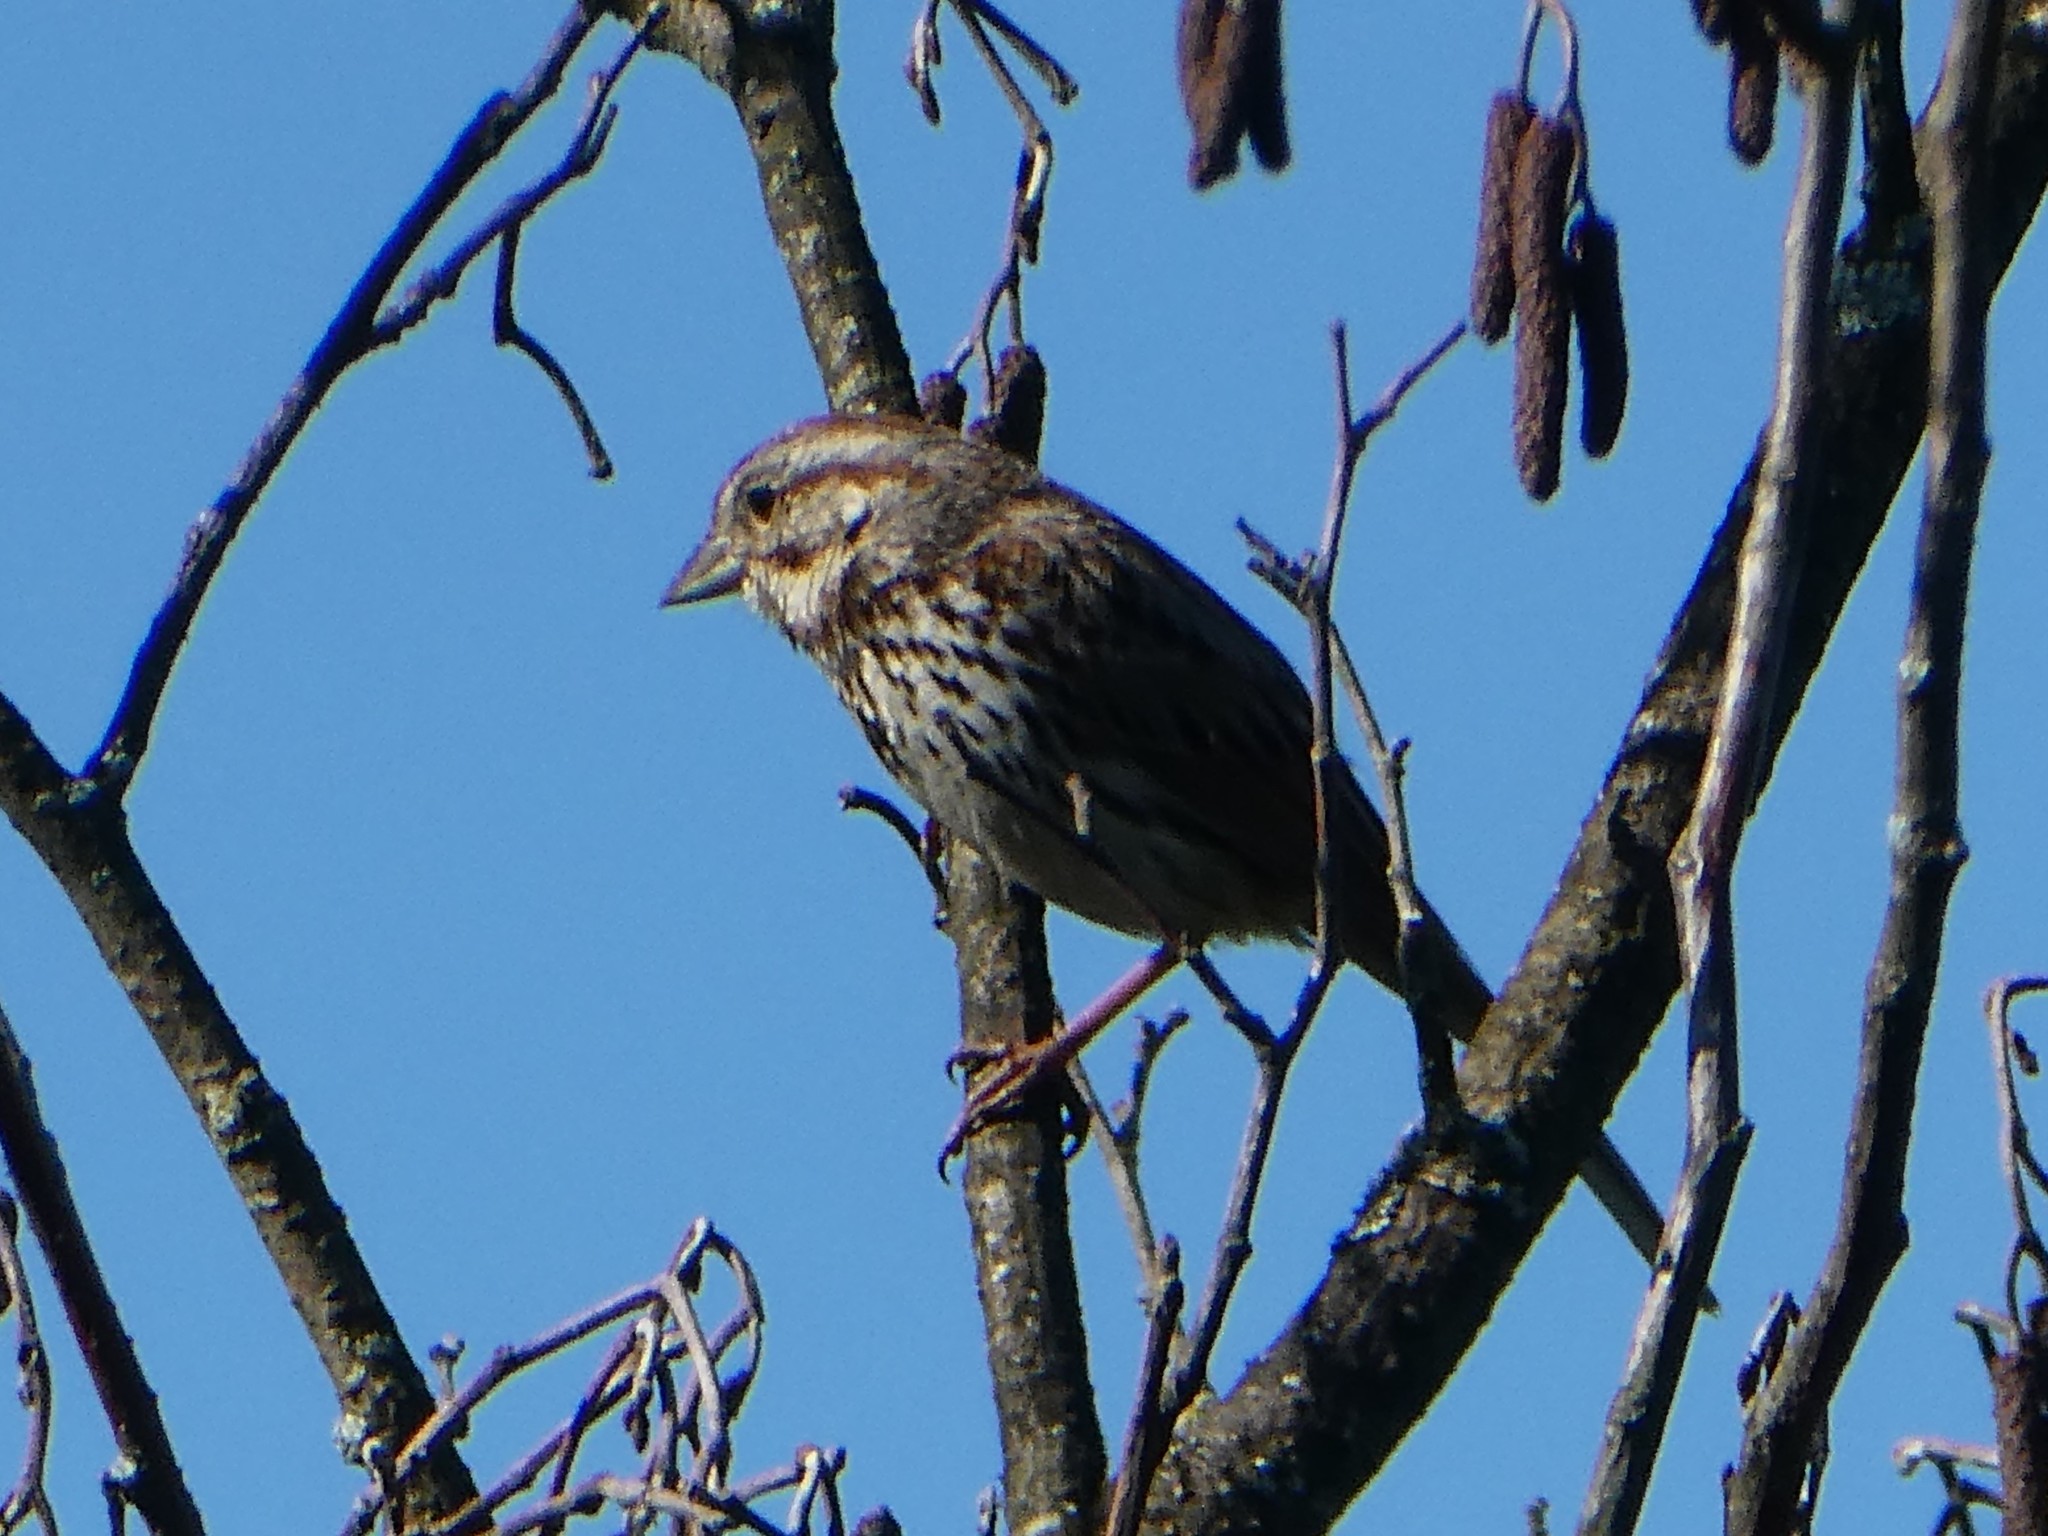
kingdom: Animalia
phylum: Chordata
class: Aves
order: Passeriformes
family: Passerellidae
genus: Melospiza
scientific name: Melospiza melodia
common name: Song sparrow
